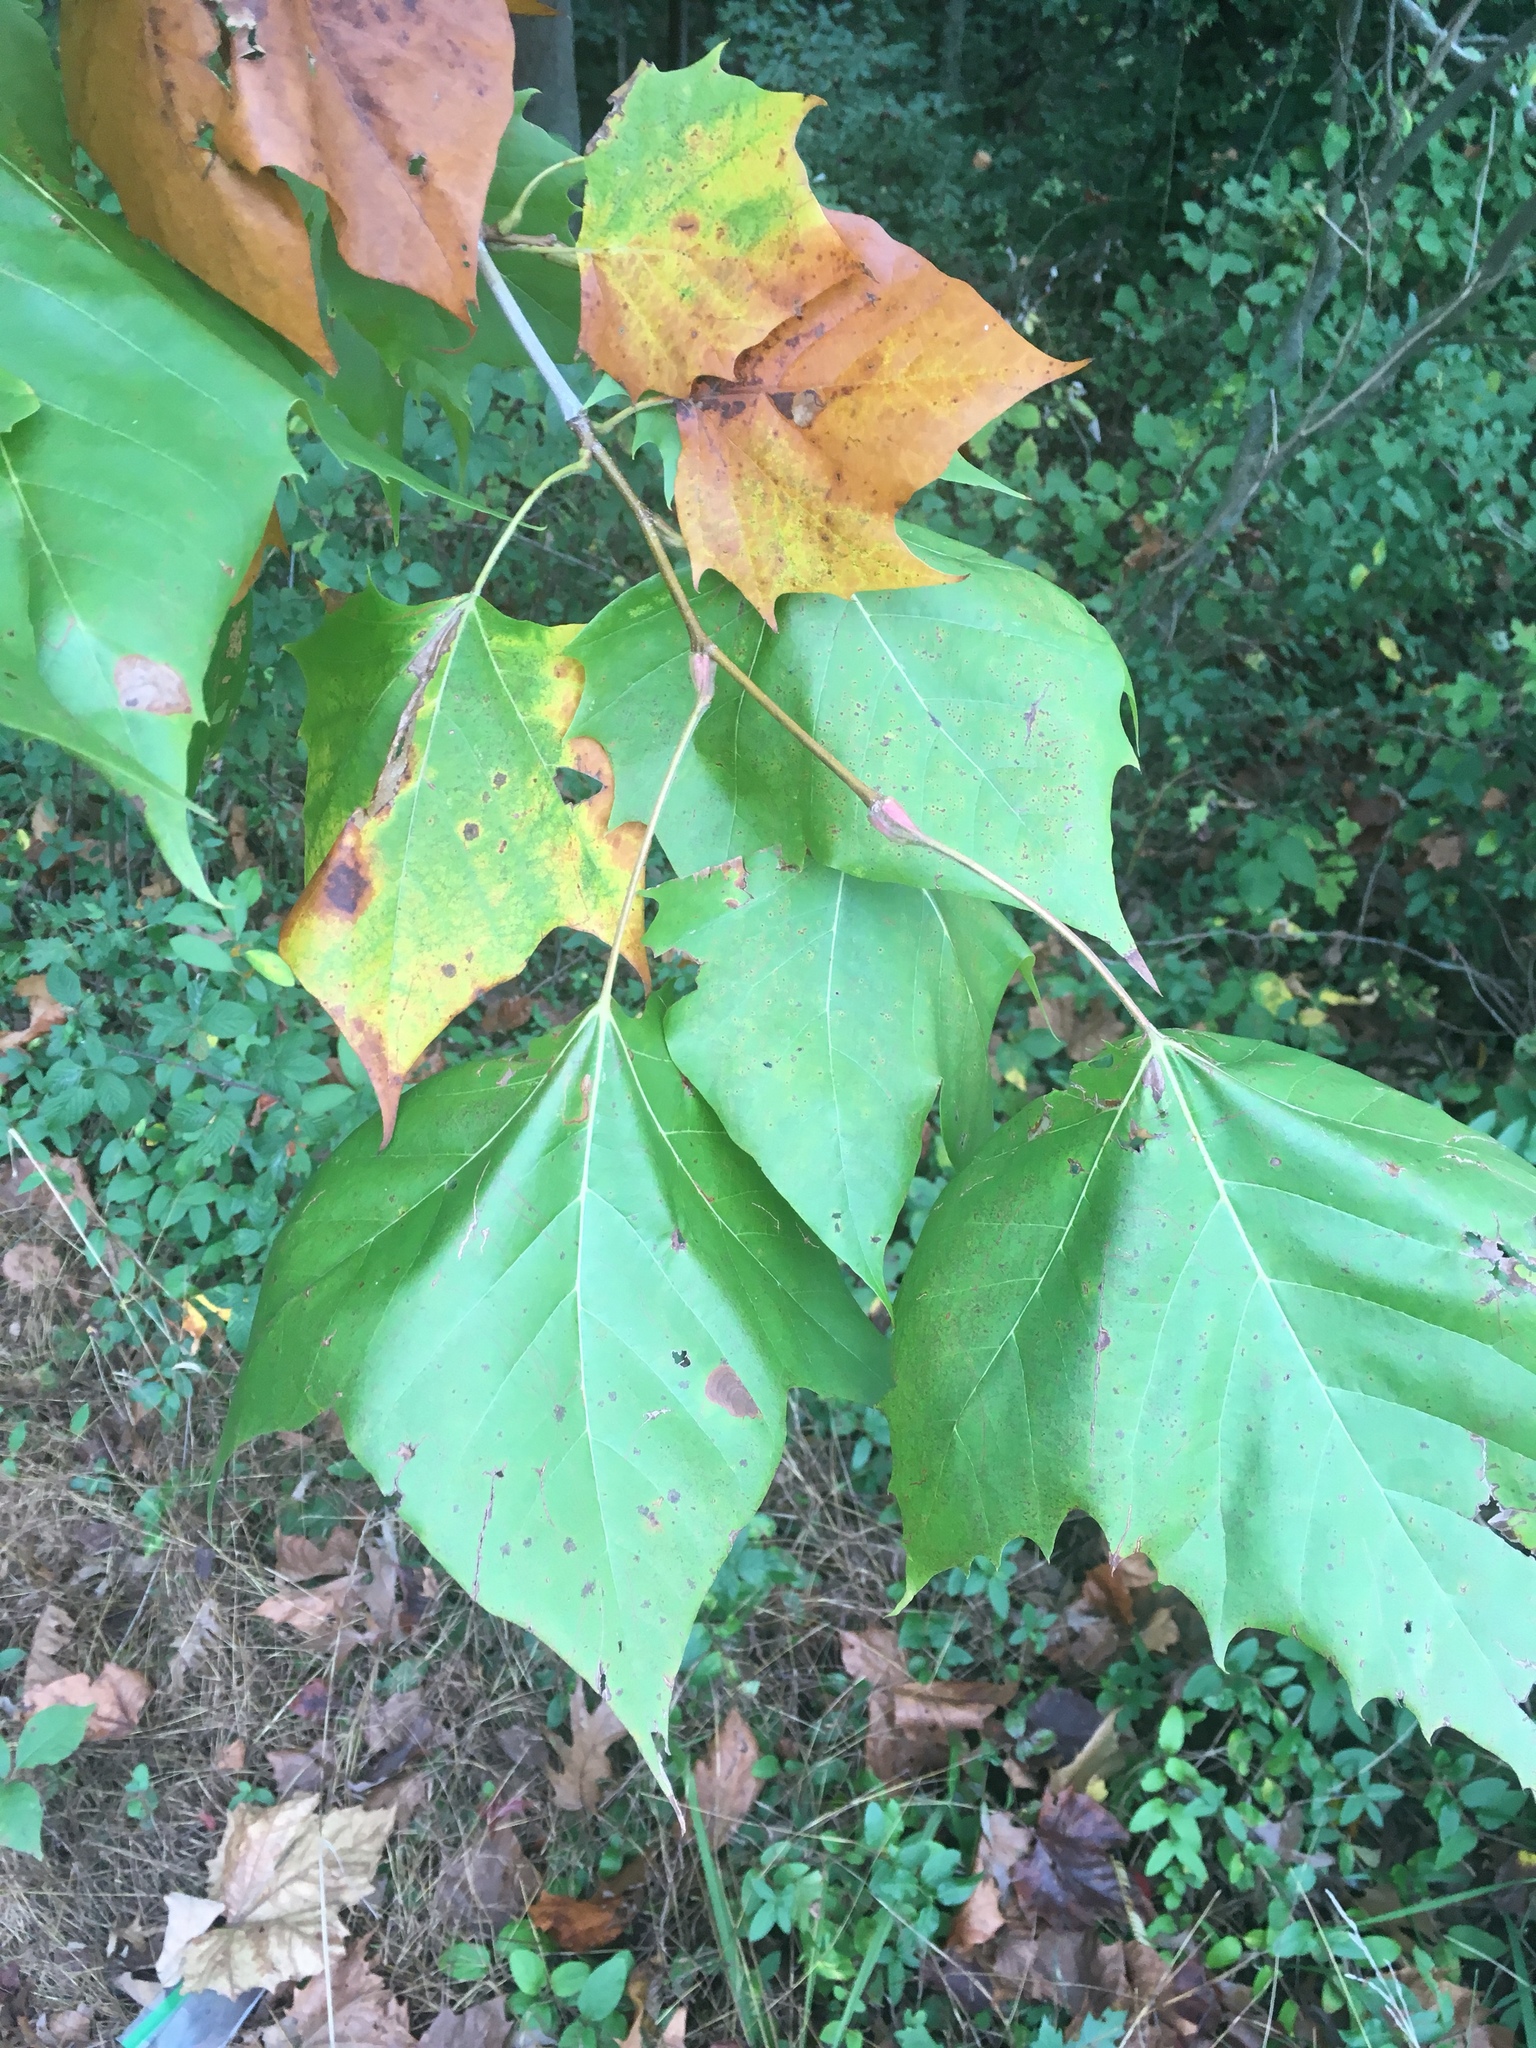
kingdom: Plantae
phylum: Tracheophyta
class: Magnoliopsida
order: Proteales
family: Platanaceae
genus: Platanus
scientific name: Platanus occidentalis
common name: American sycamore
